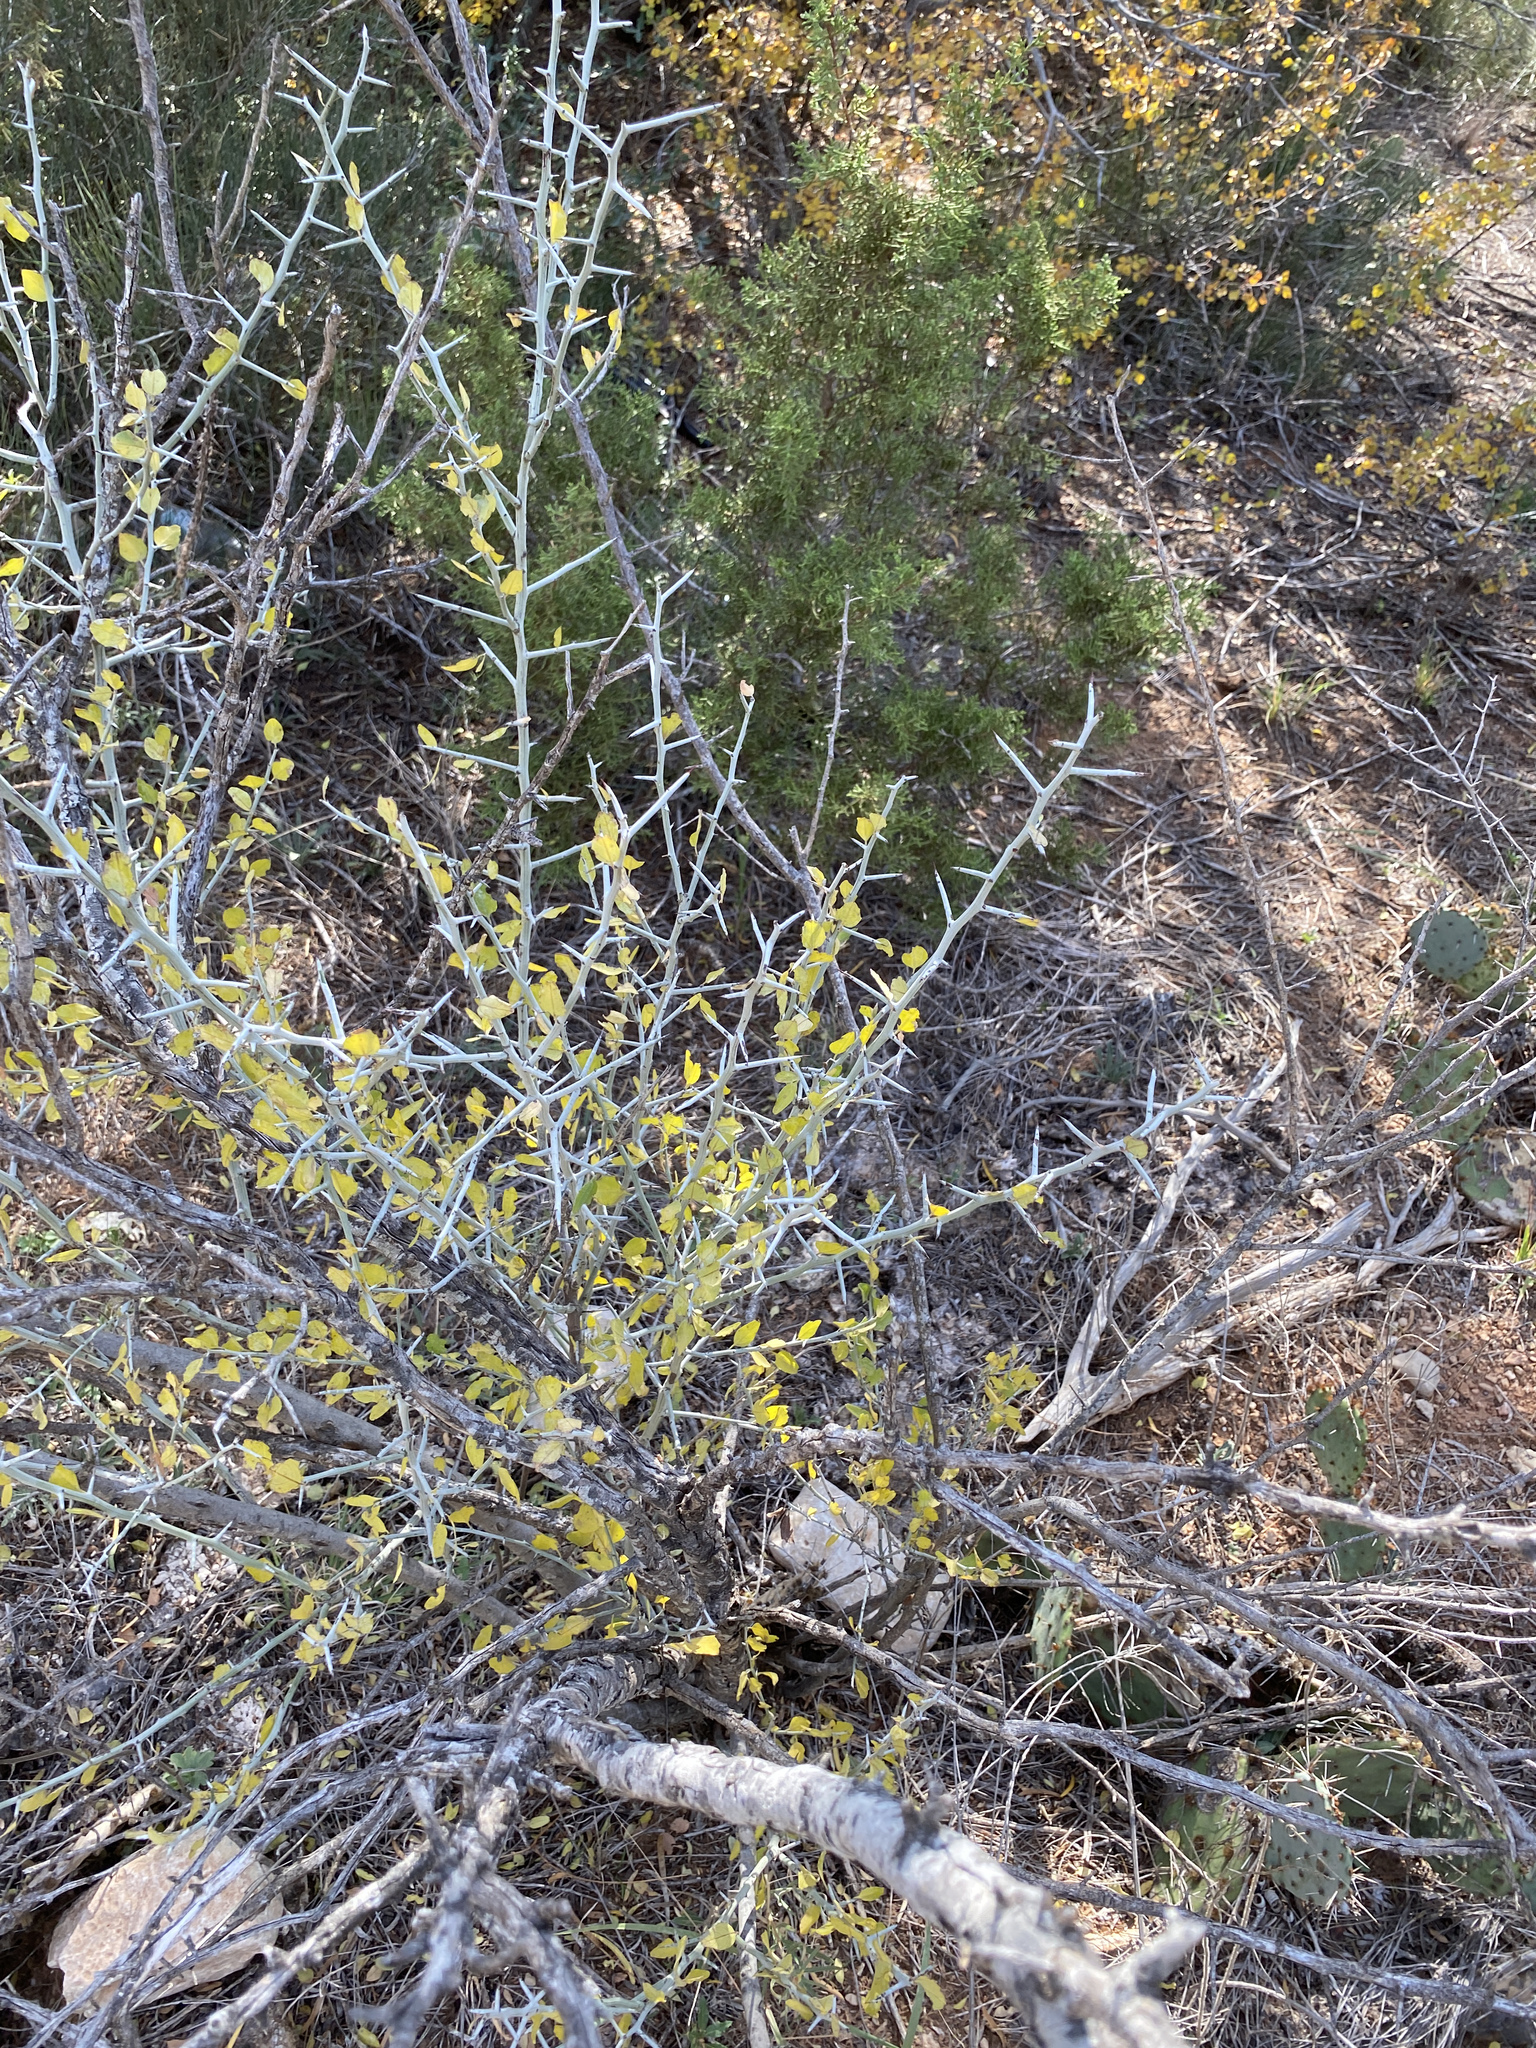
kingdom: Plantae
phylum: Tracheophyta
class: Magnoliopsida
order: Rosales
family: Rhamnaceae
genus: Sarcomphalus
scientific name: Sarcomphalus obtusifolius
